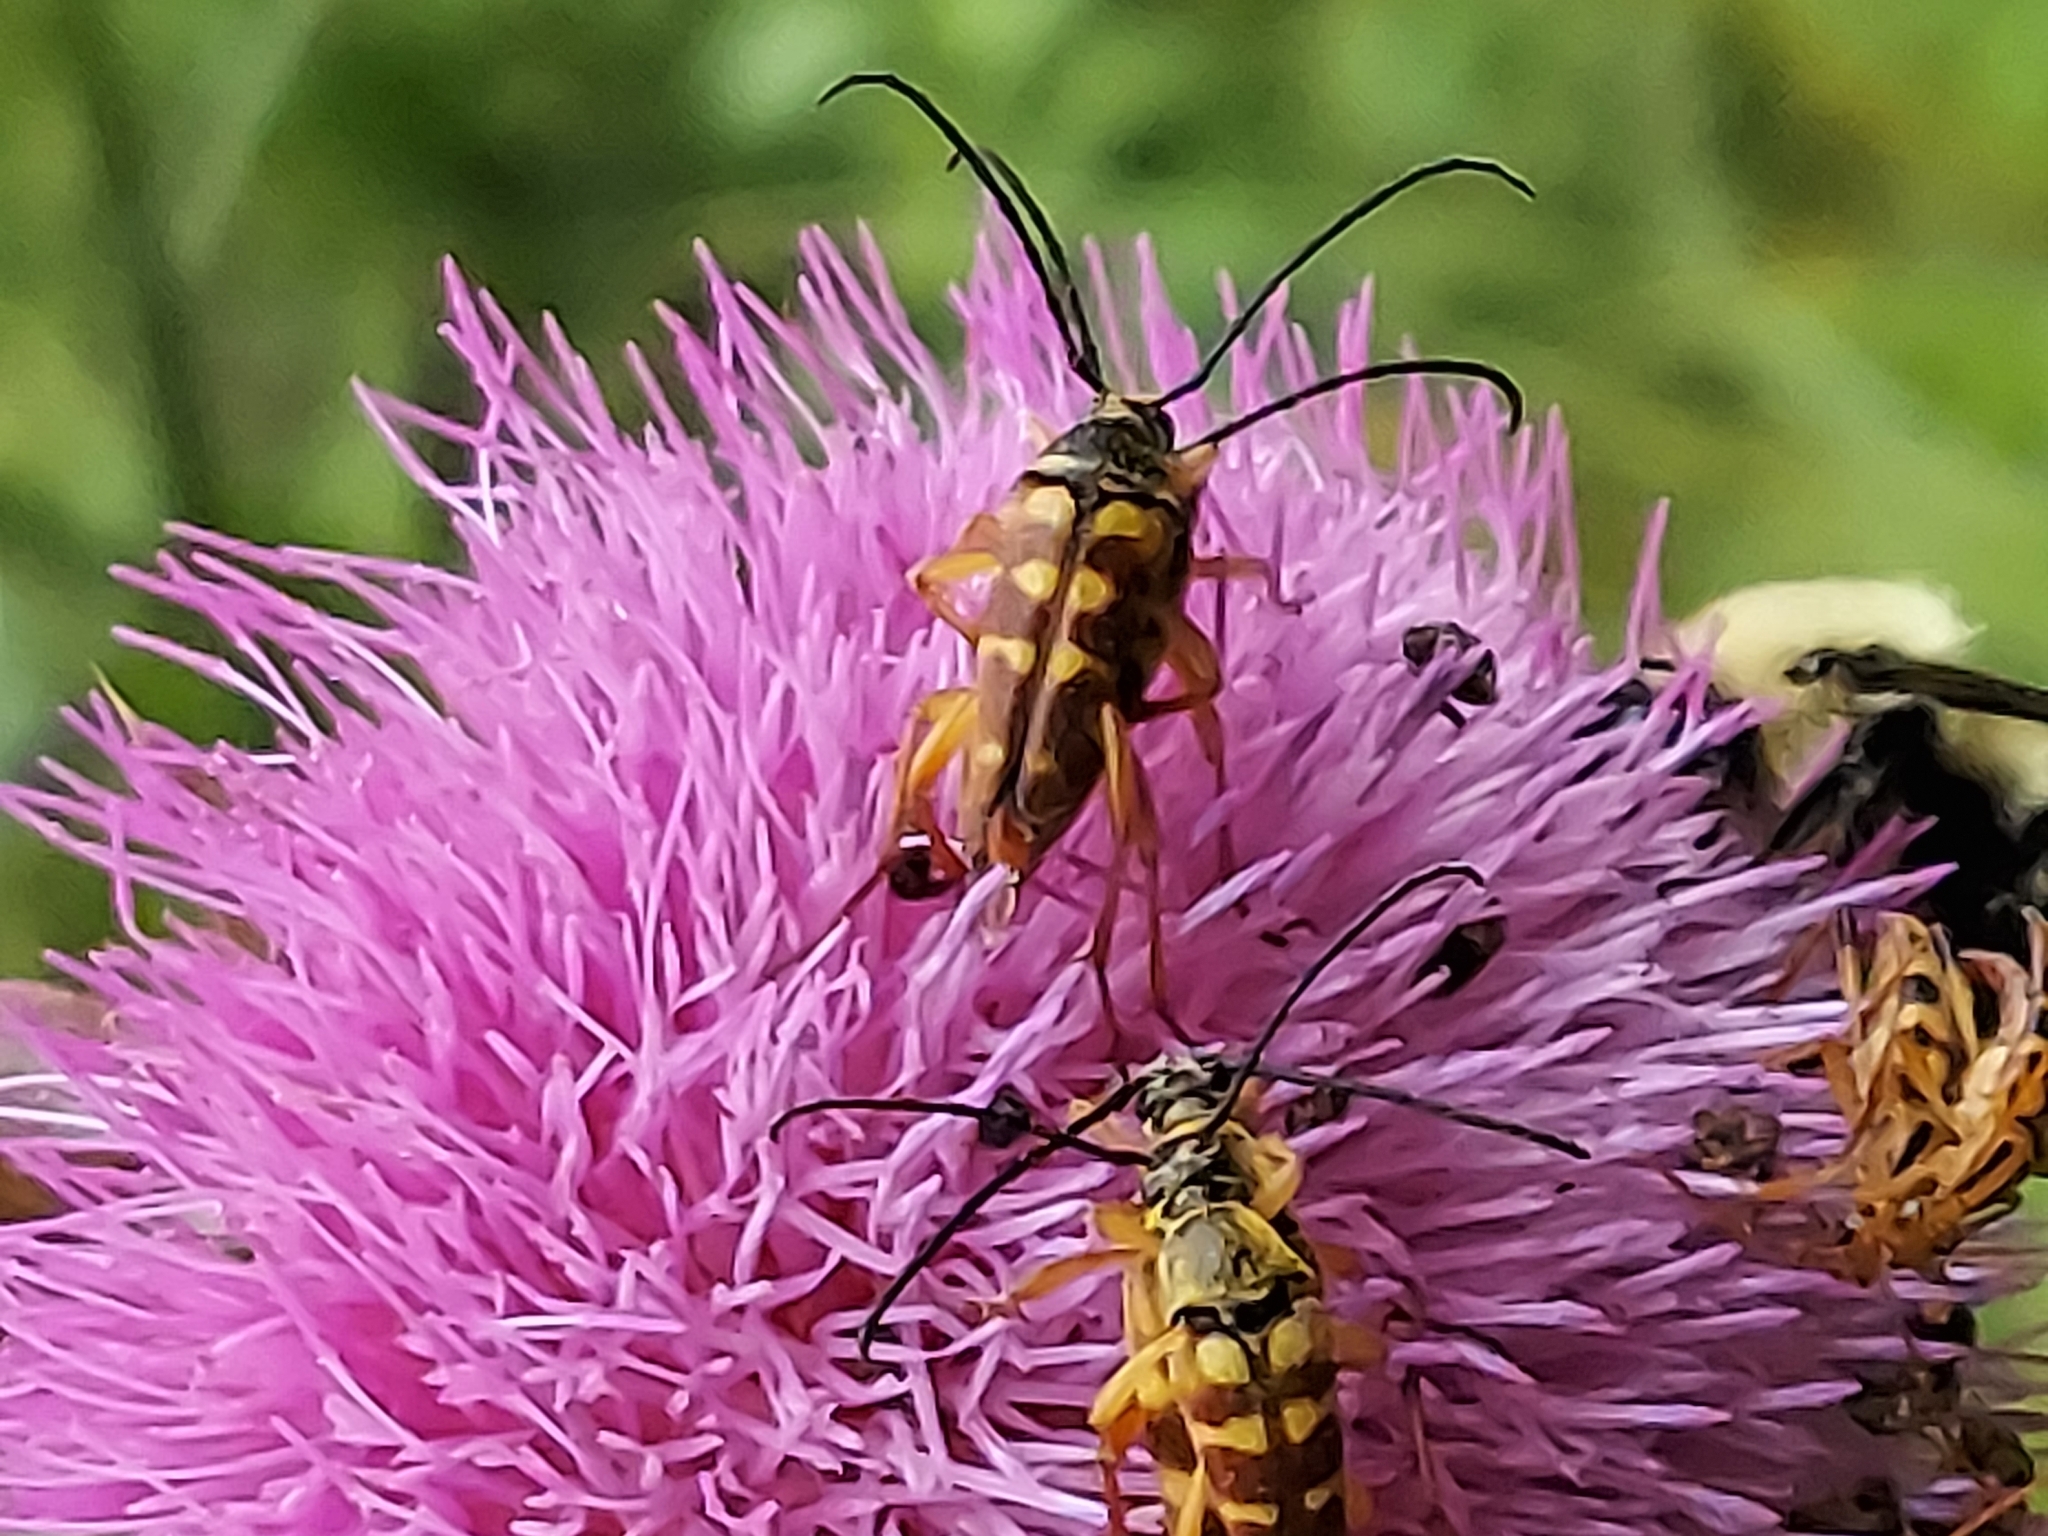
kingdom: Animalia
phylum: Arthropoda
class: Insecta
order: Coleoptera
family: Cerambycidae
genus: Typocerus
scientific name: Typocerus velutinus
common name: Banded longhorn beetle
